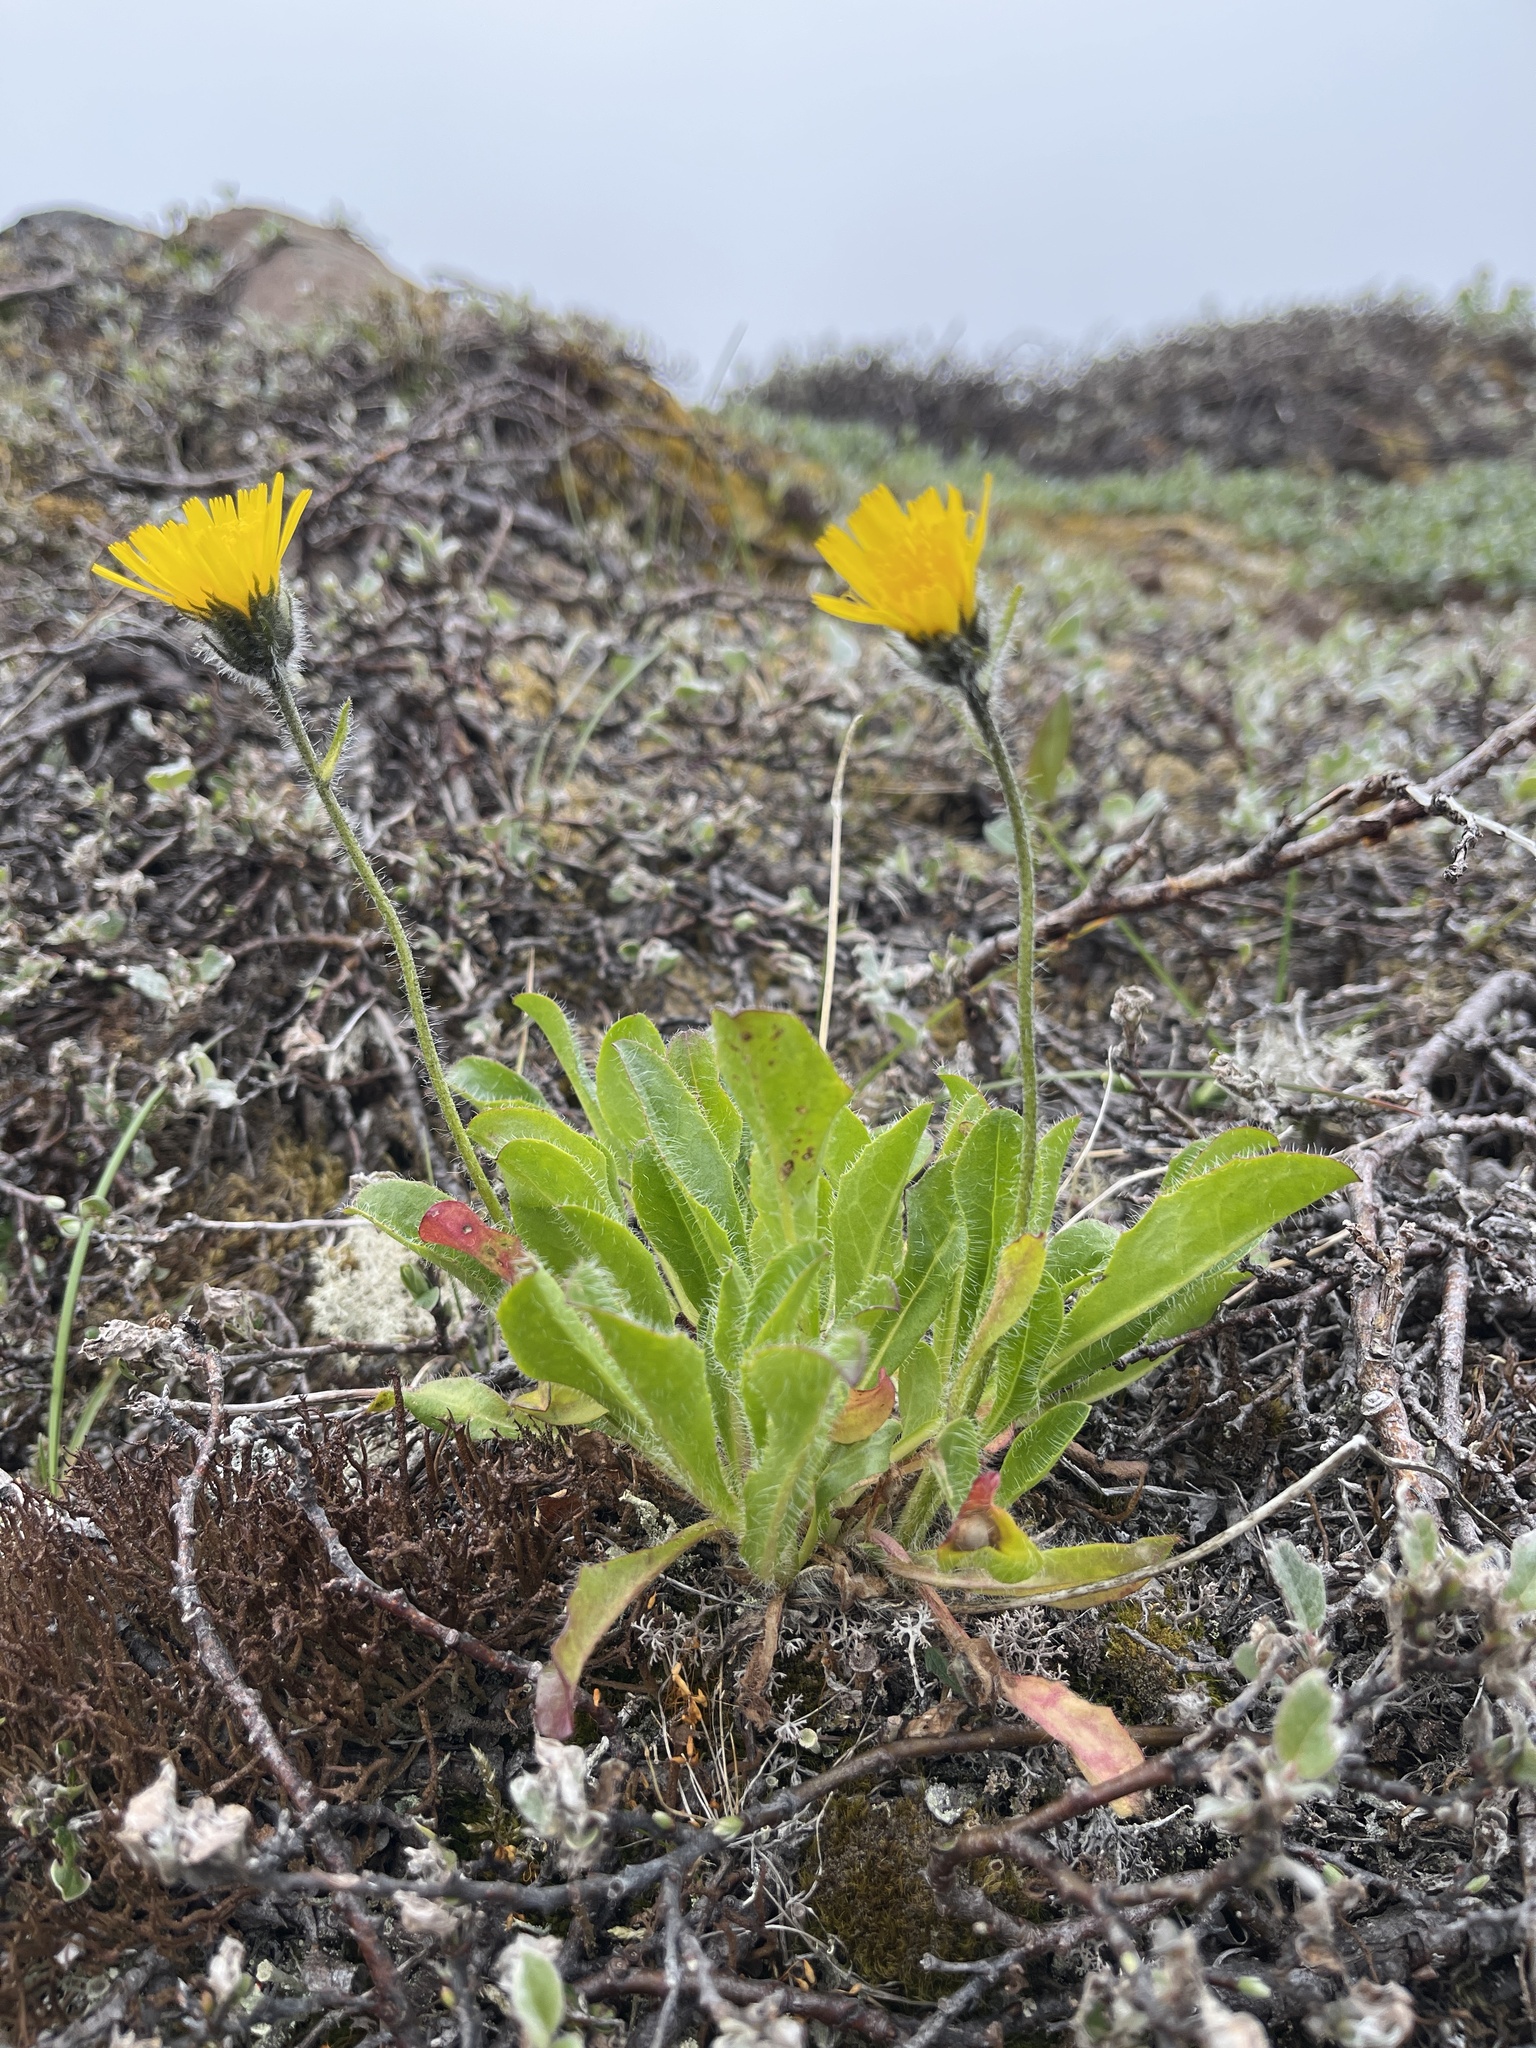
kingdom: Plantae
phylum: Tracheophyta
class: Magnoliopsida
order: Asterales
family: Asteraceae
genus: Hieracium
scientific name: Hieracium alpinum
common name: Alpine hawkweed
